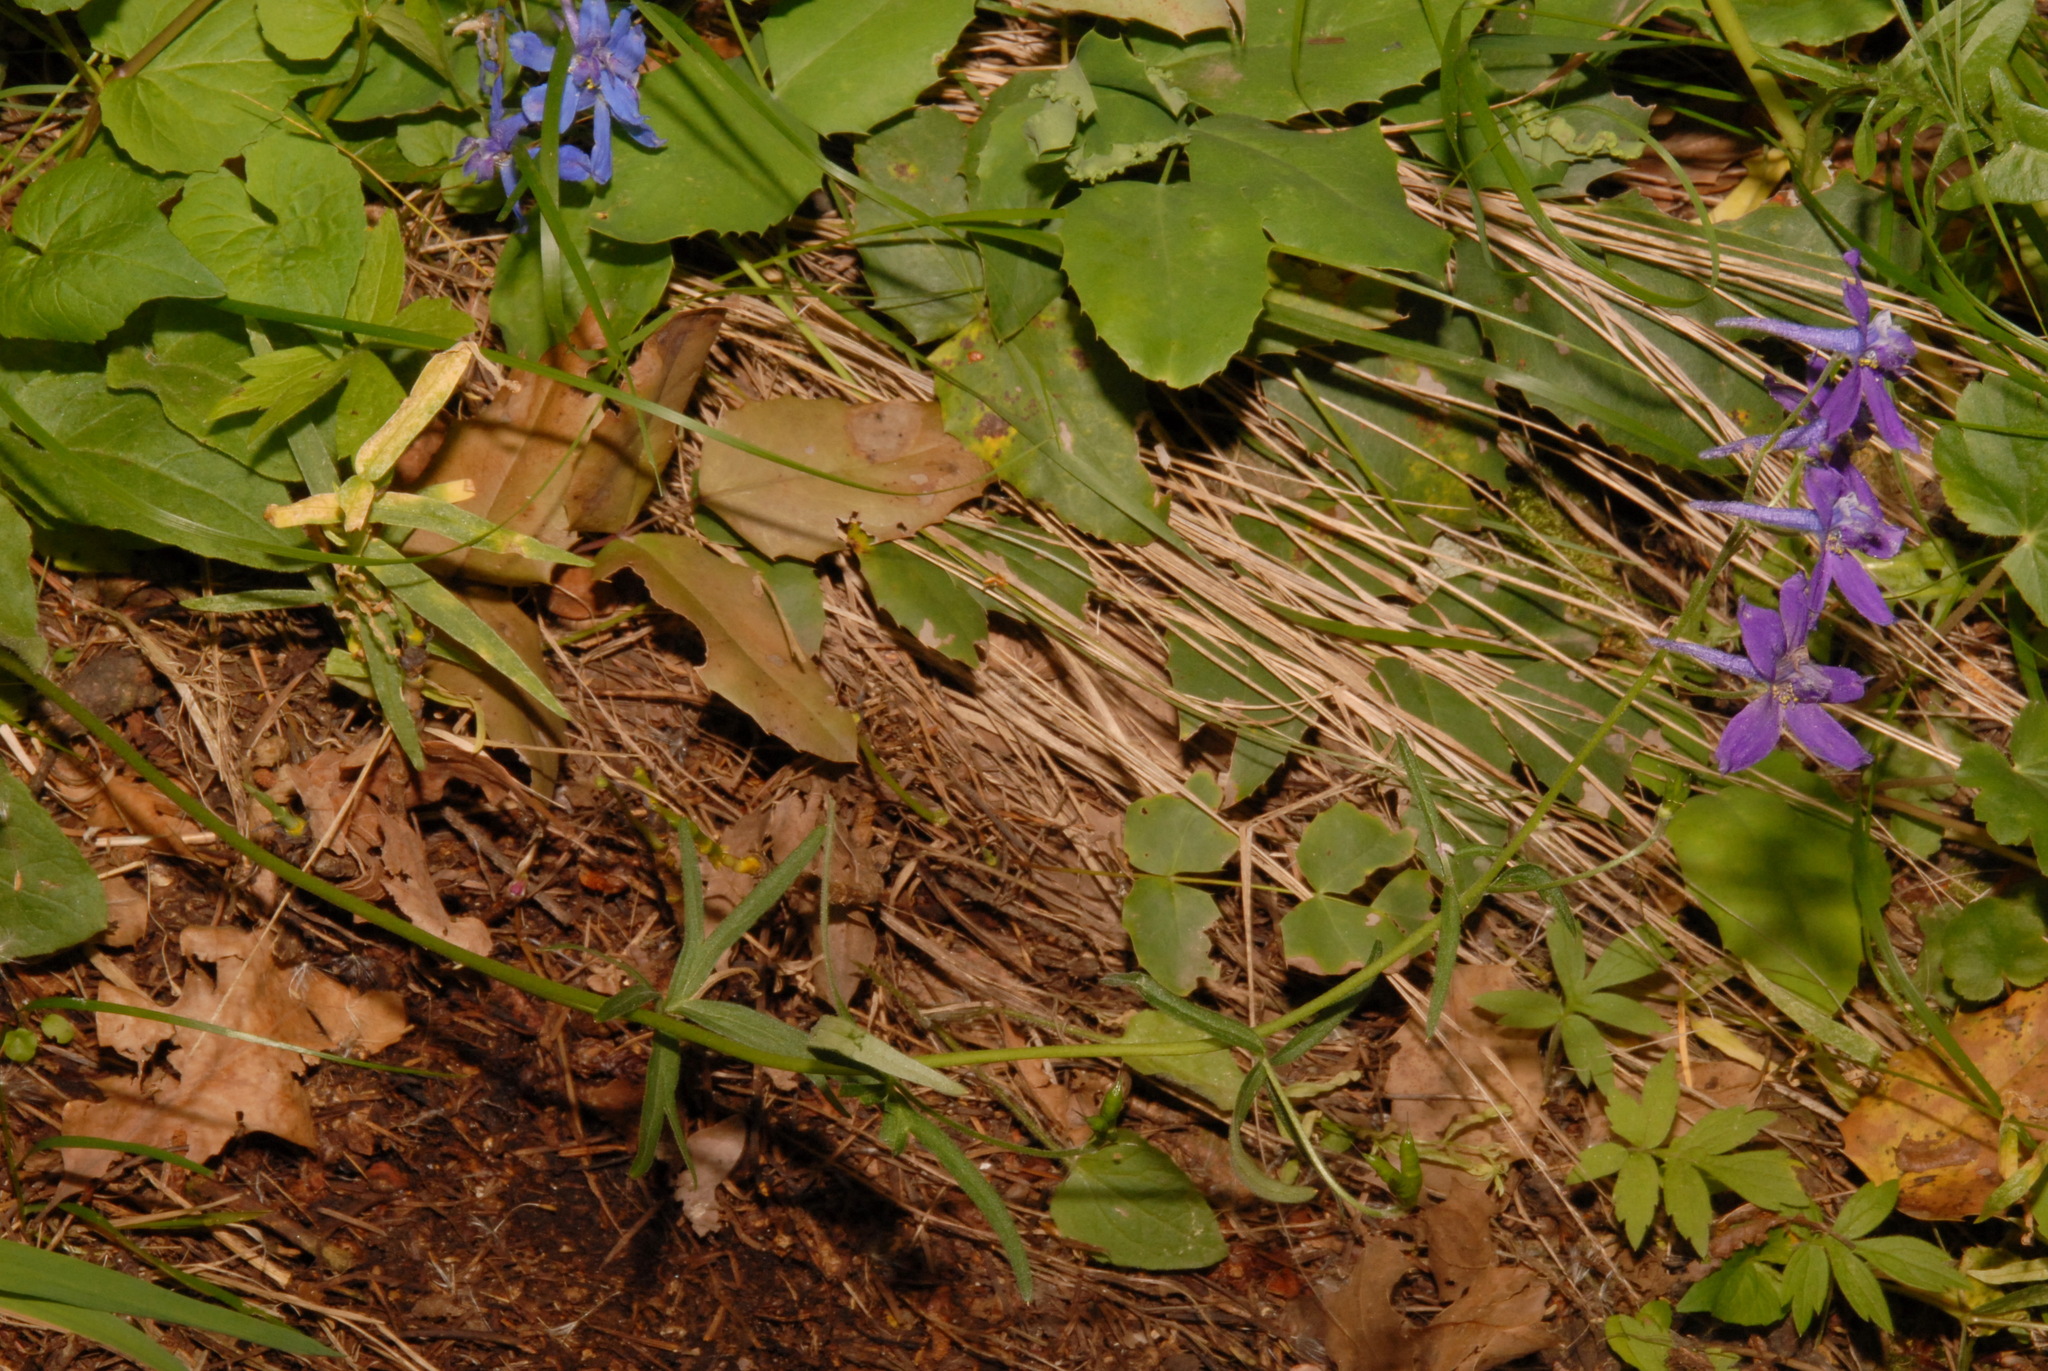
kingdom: Plantae
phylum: Tracheophyta
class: Magnoliopsida
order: Ranunculales
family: Ranunculaceae
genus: Delphinium
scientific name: Delphinium nuttallianum
